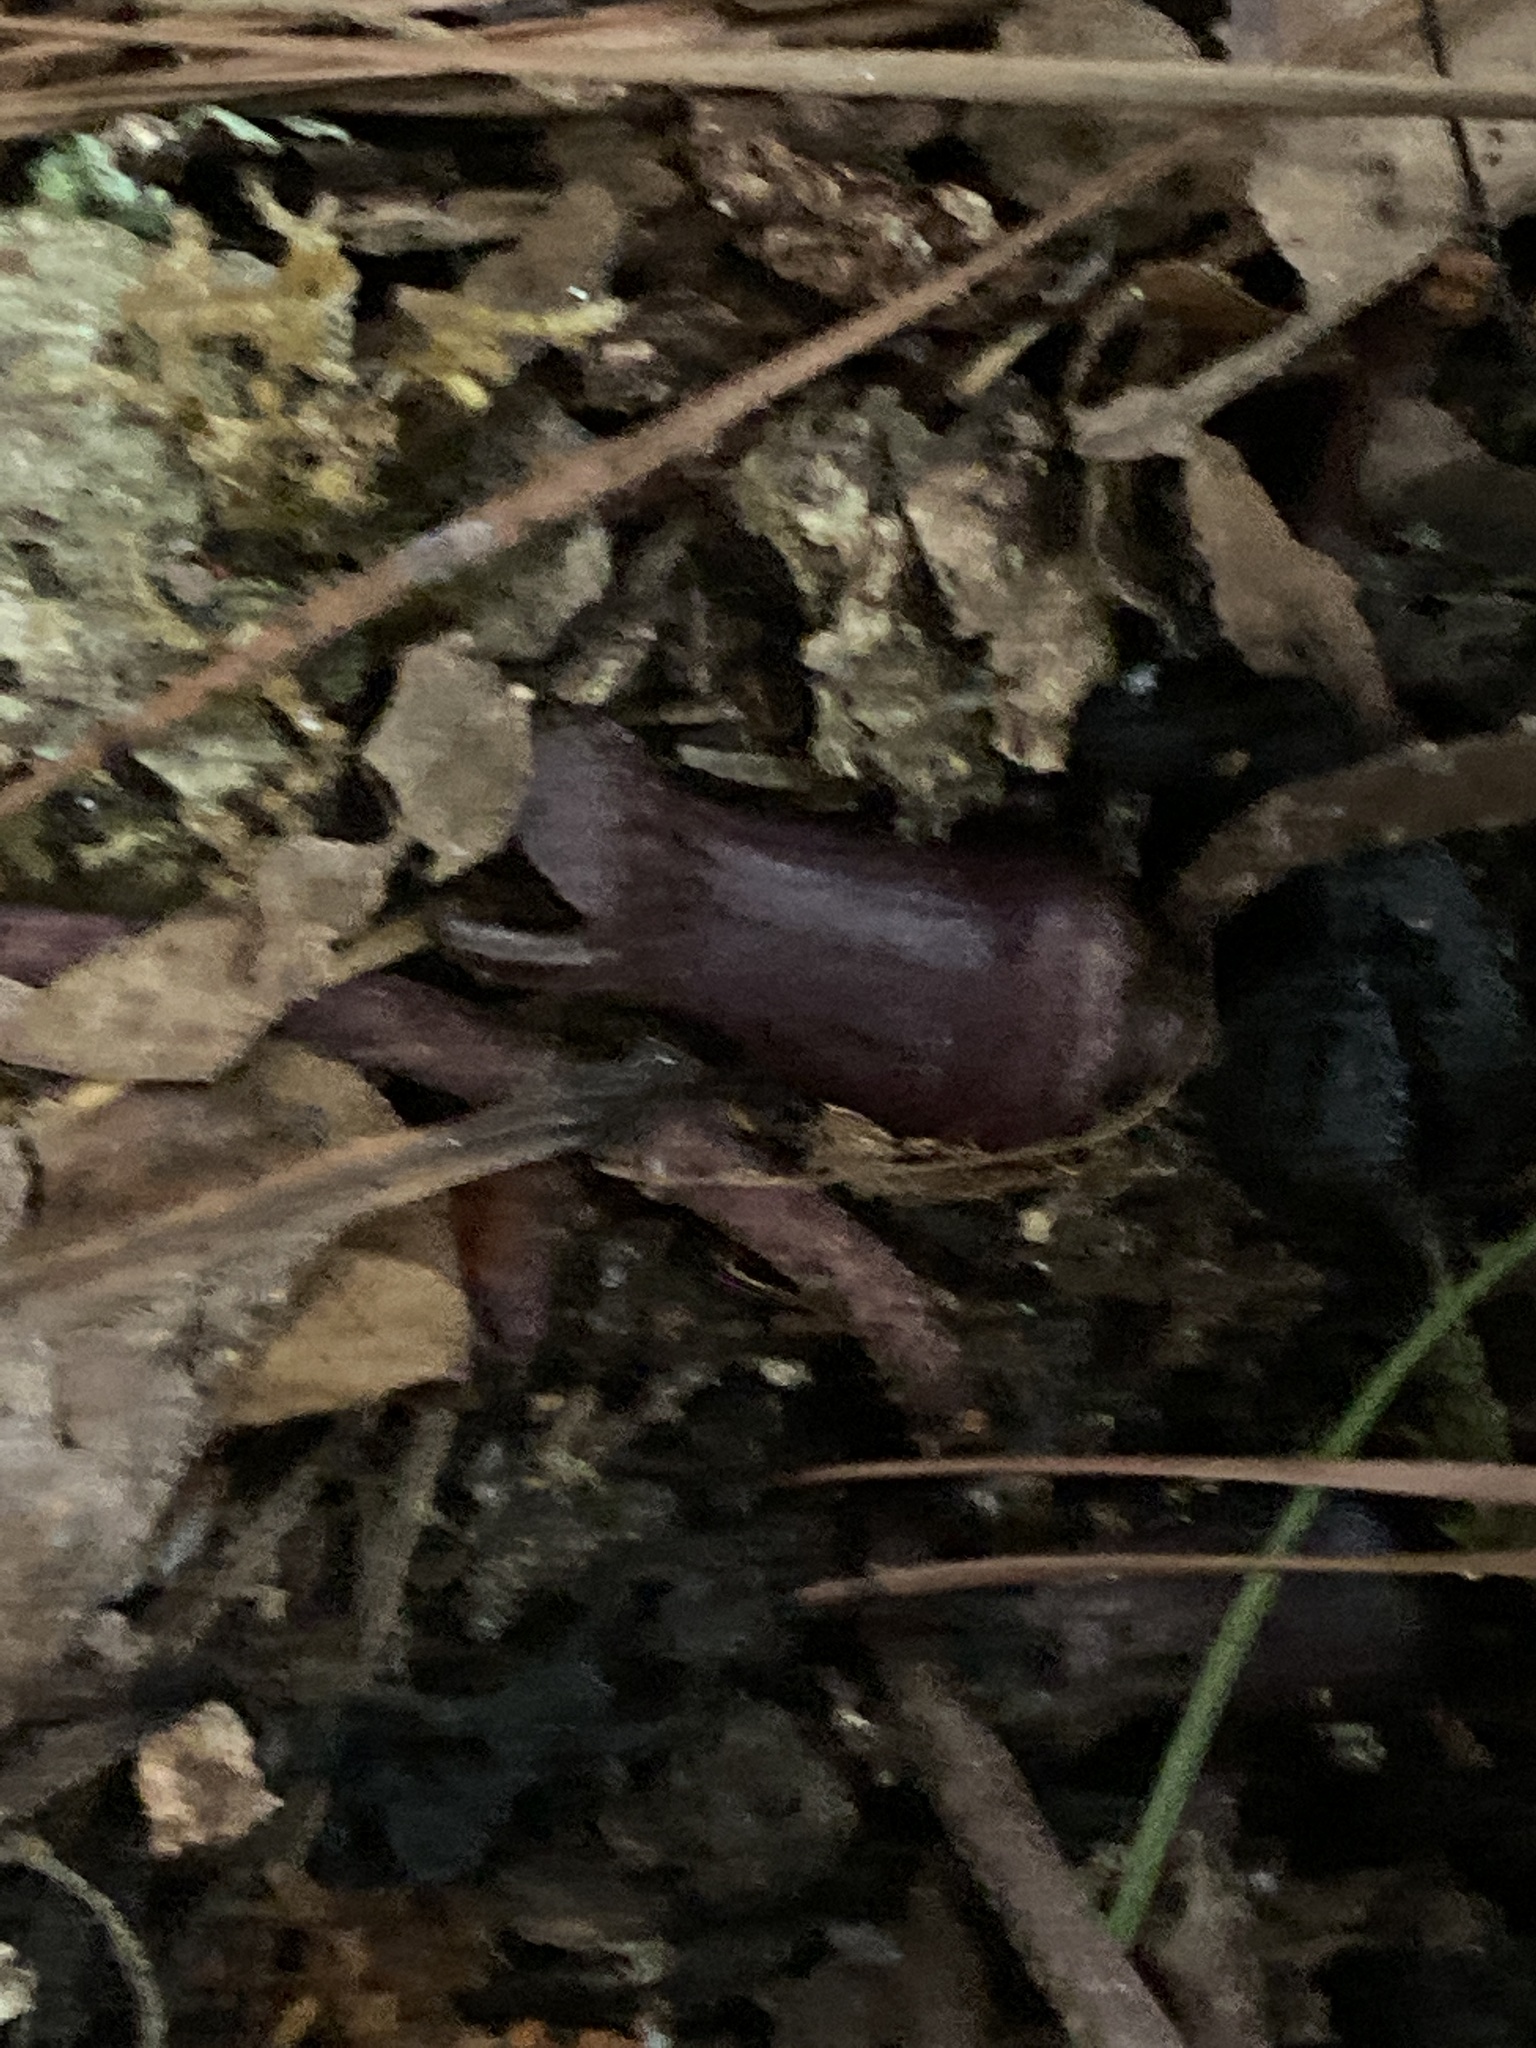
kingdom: Plantae
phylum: Tracheophyta
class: Magnoliopsida
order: Piperales
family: Aristolochiaceae
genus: Hexastylis
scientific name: Hexastylis arifolia
